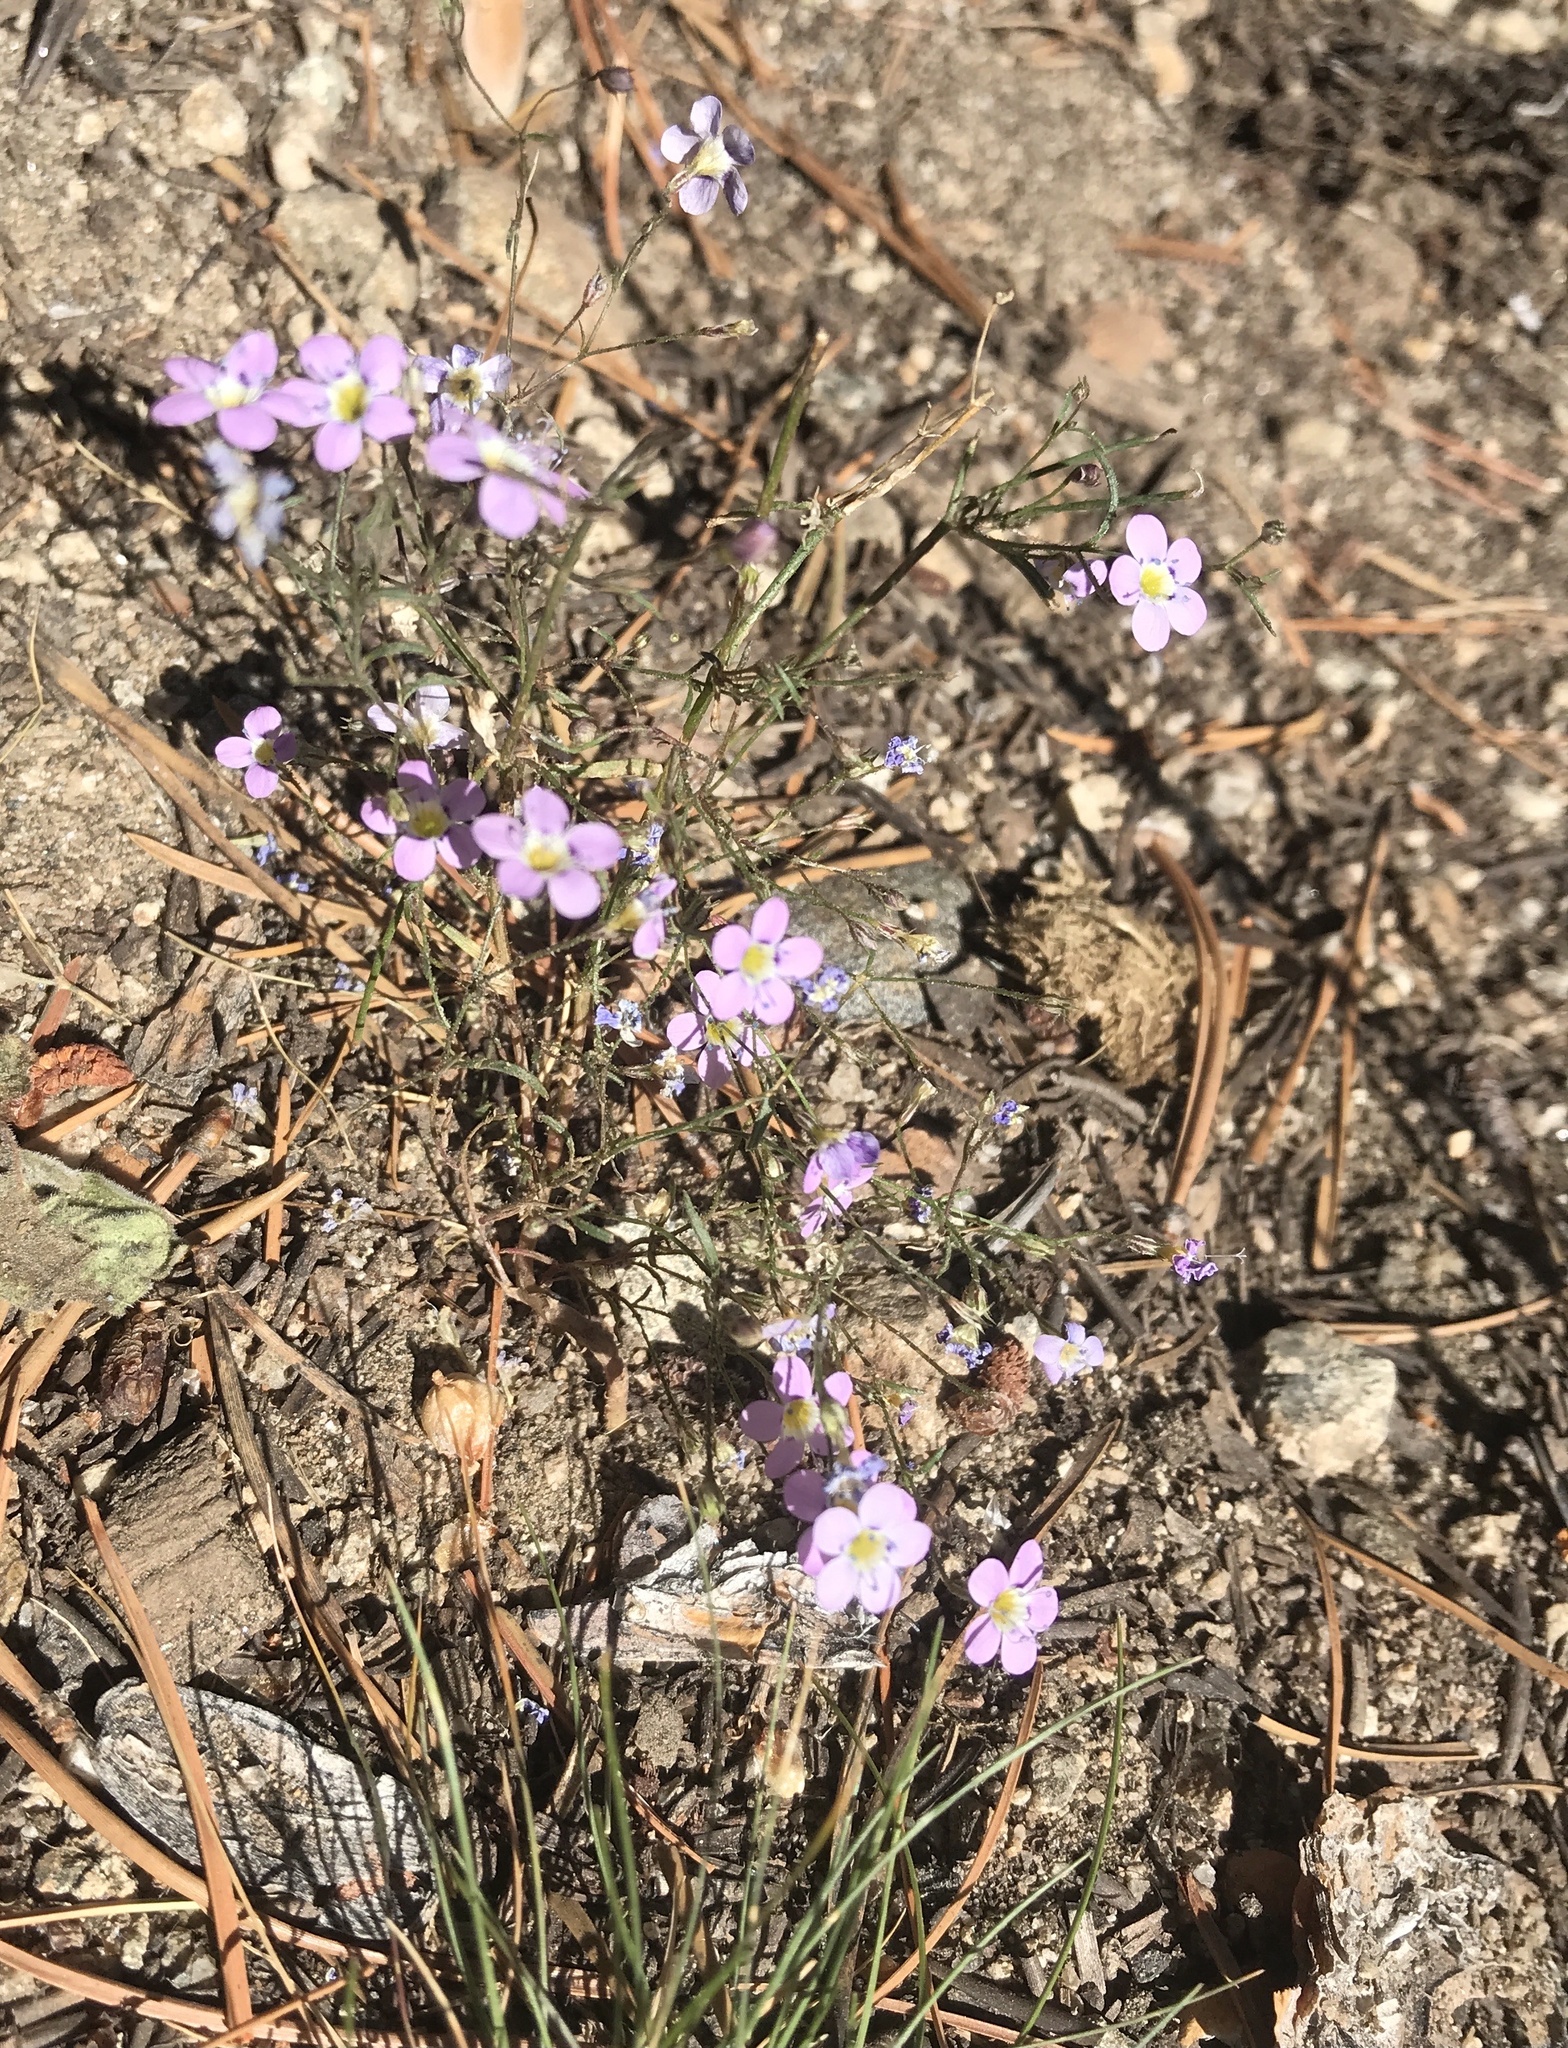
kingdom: Plantae
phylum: Tracheophyta
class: Magnoliopsida
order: Ericales
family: Polemoniaceae
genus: Navarretia
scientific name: Navarretia leptalea
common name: Bridges' pincushionplant
